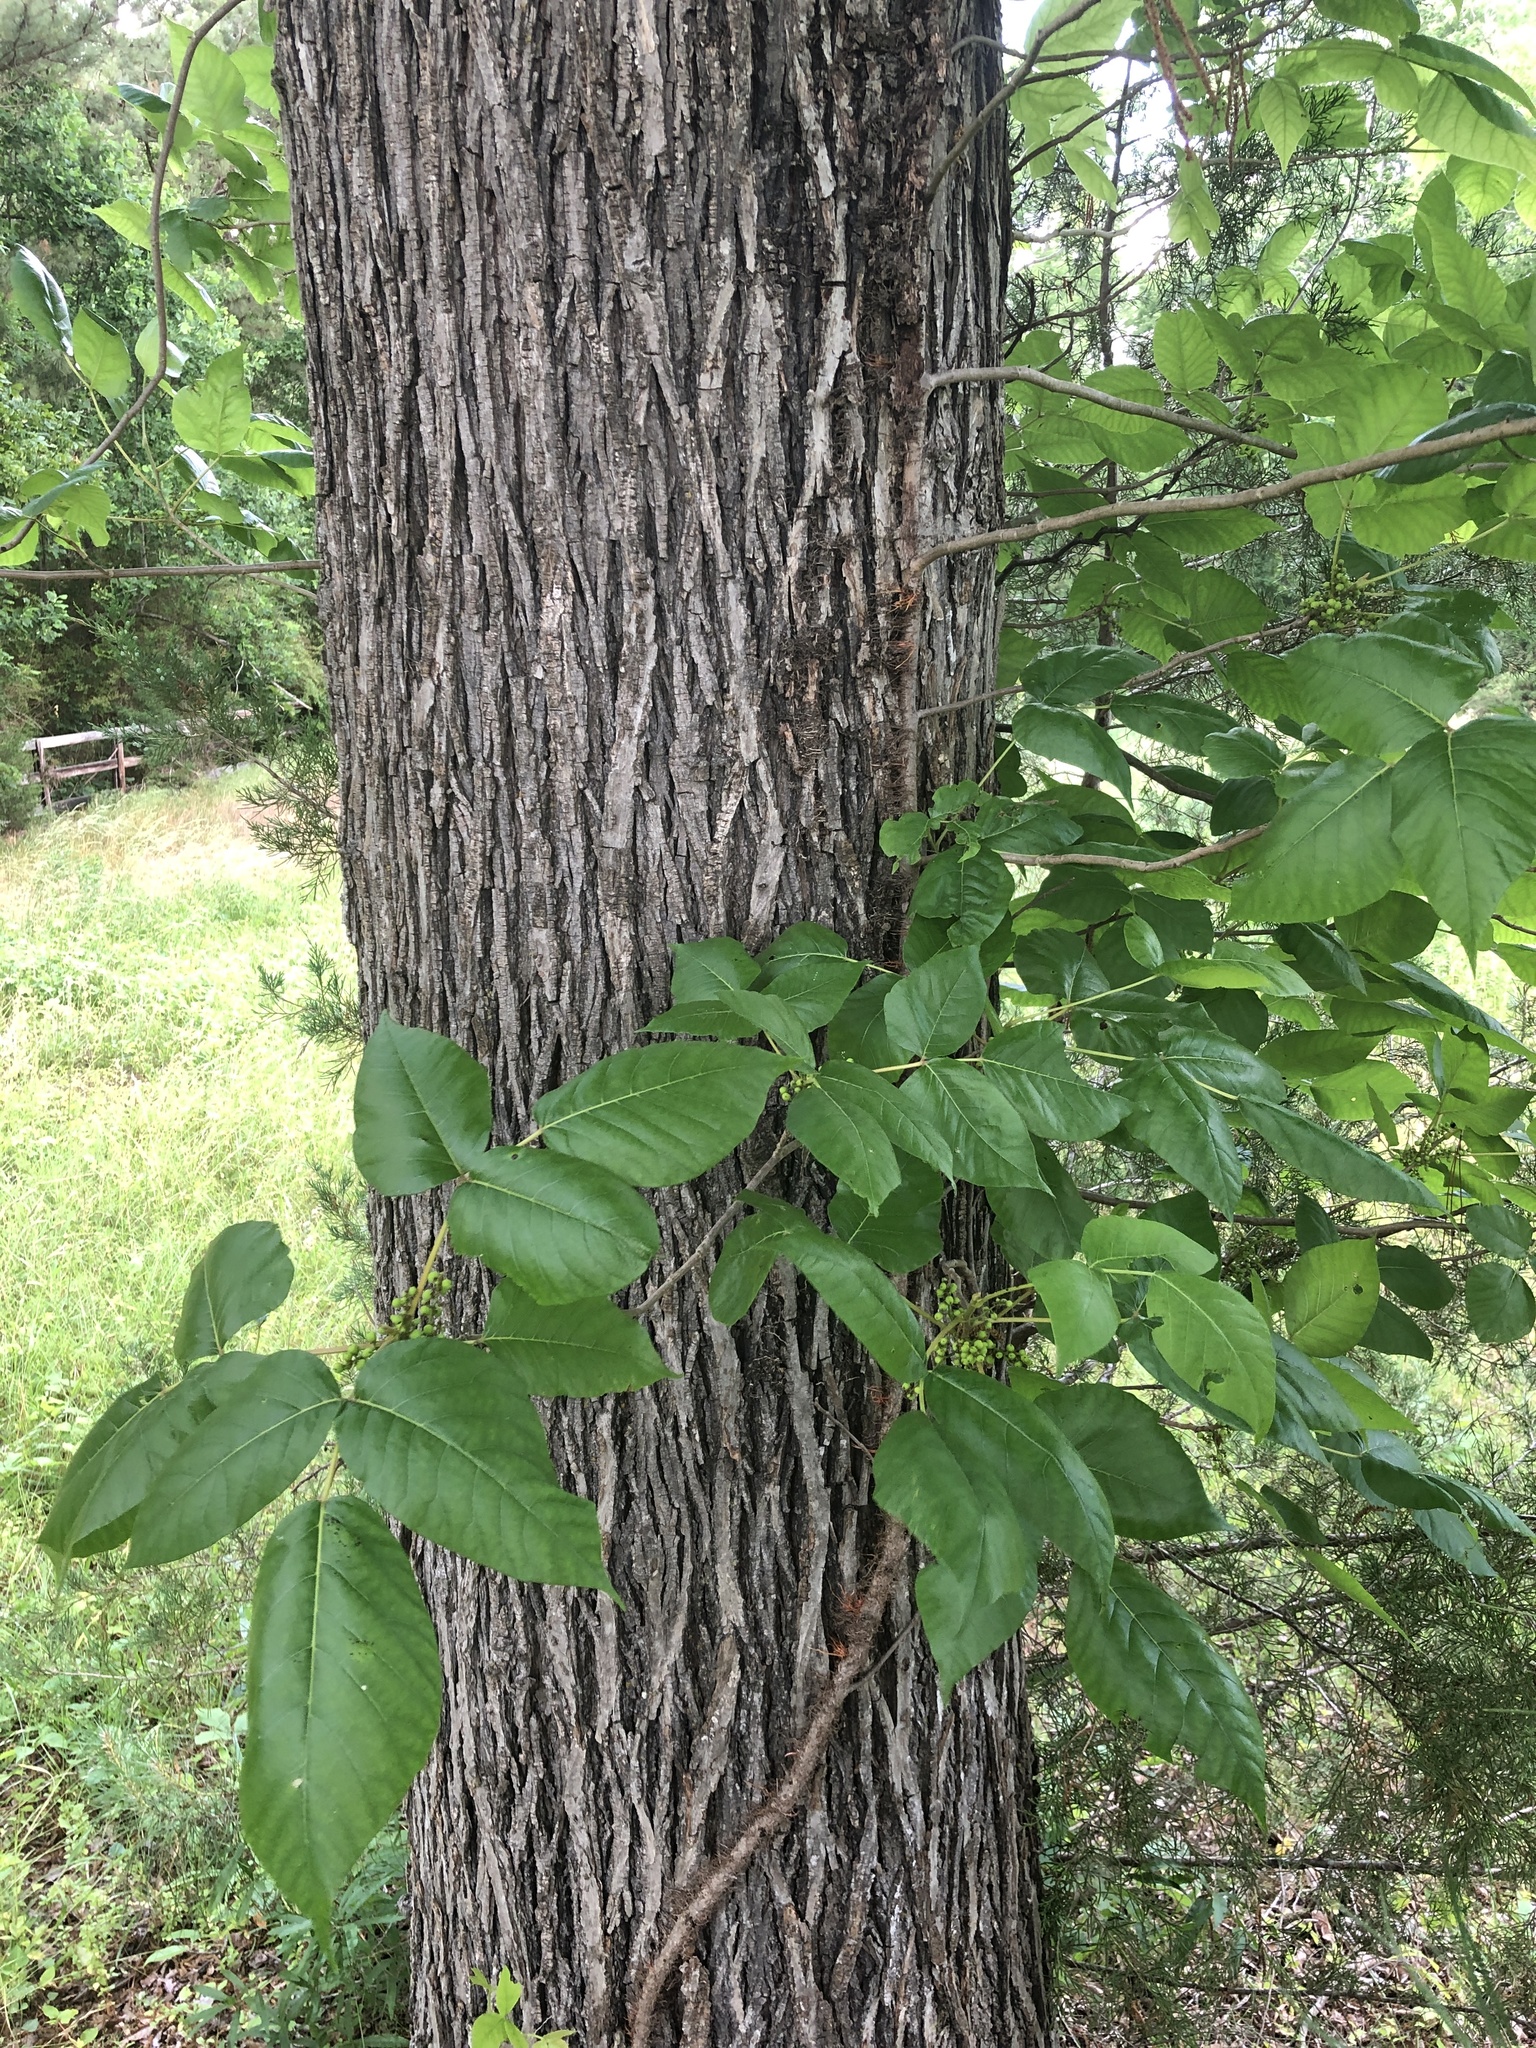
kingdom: Plantae
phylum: Tracheophyta
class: Magnoliopsida
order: Sapindales
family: Anacardiaceae
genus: Toxicodendron
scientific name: Toxicodendron radicans
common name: Poison ivy
